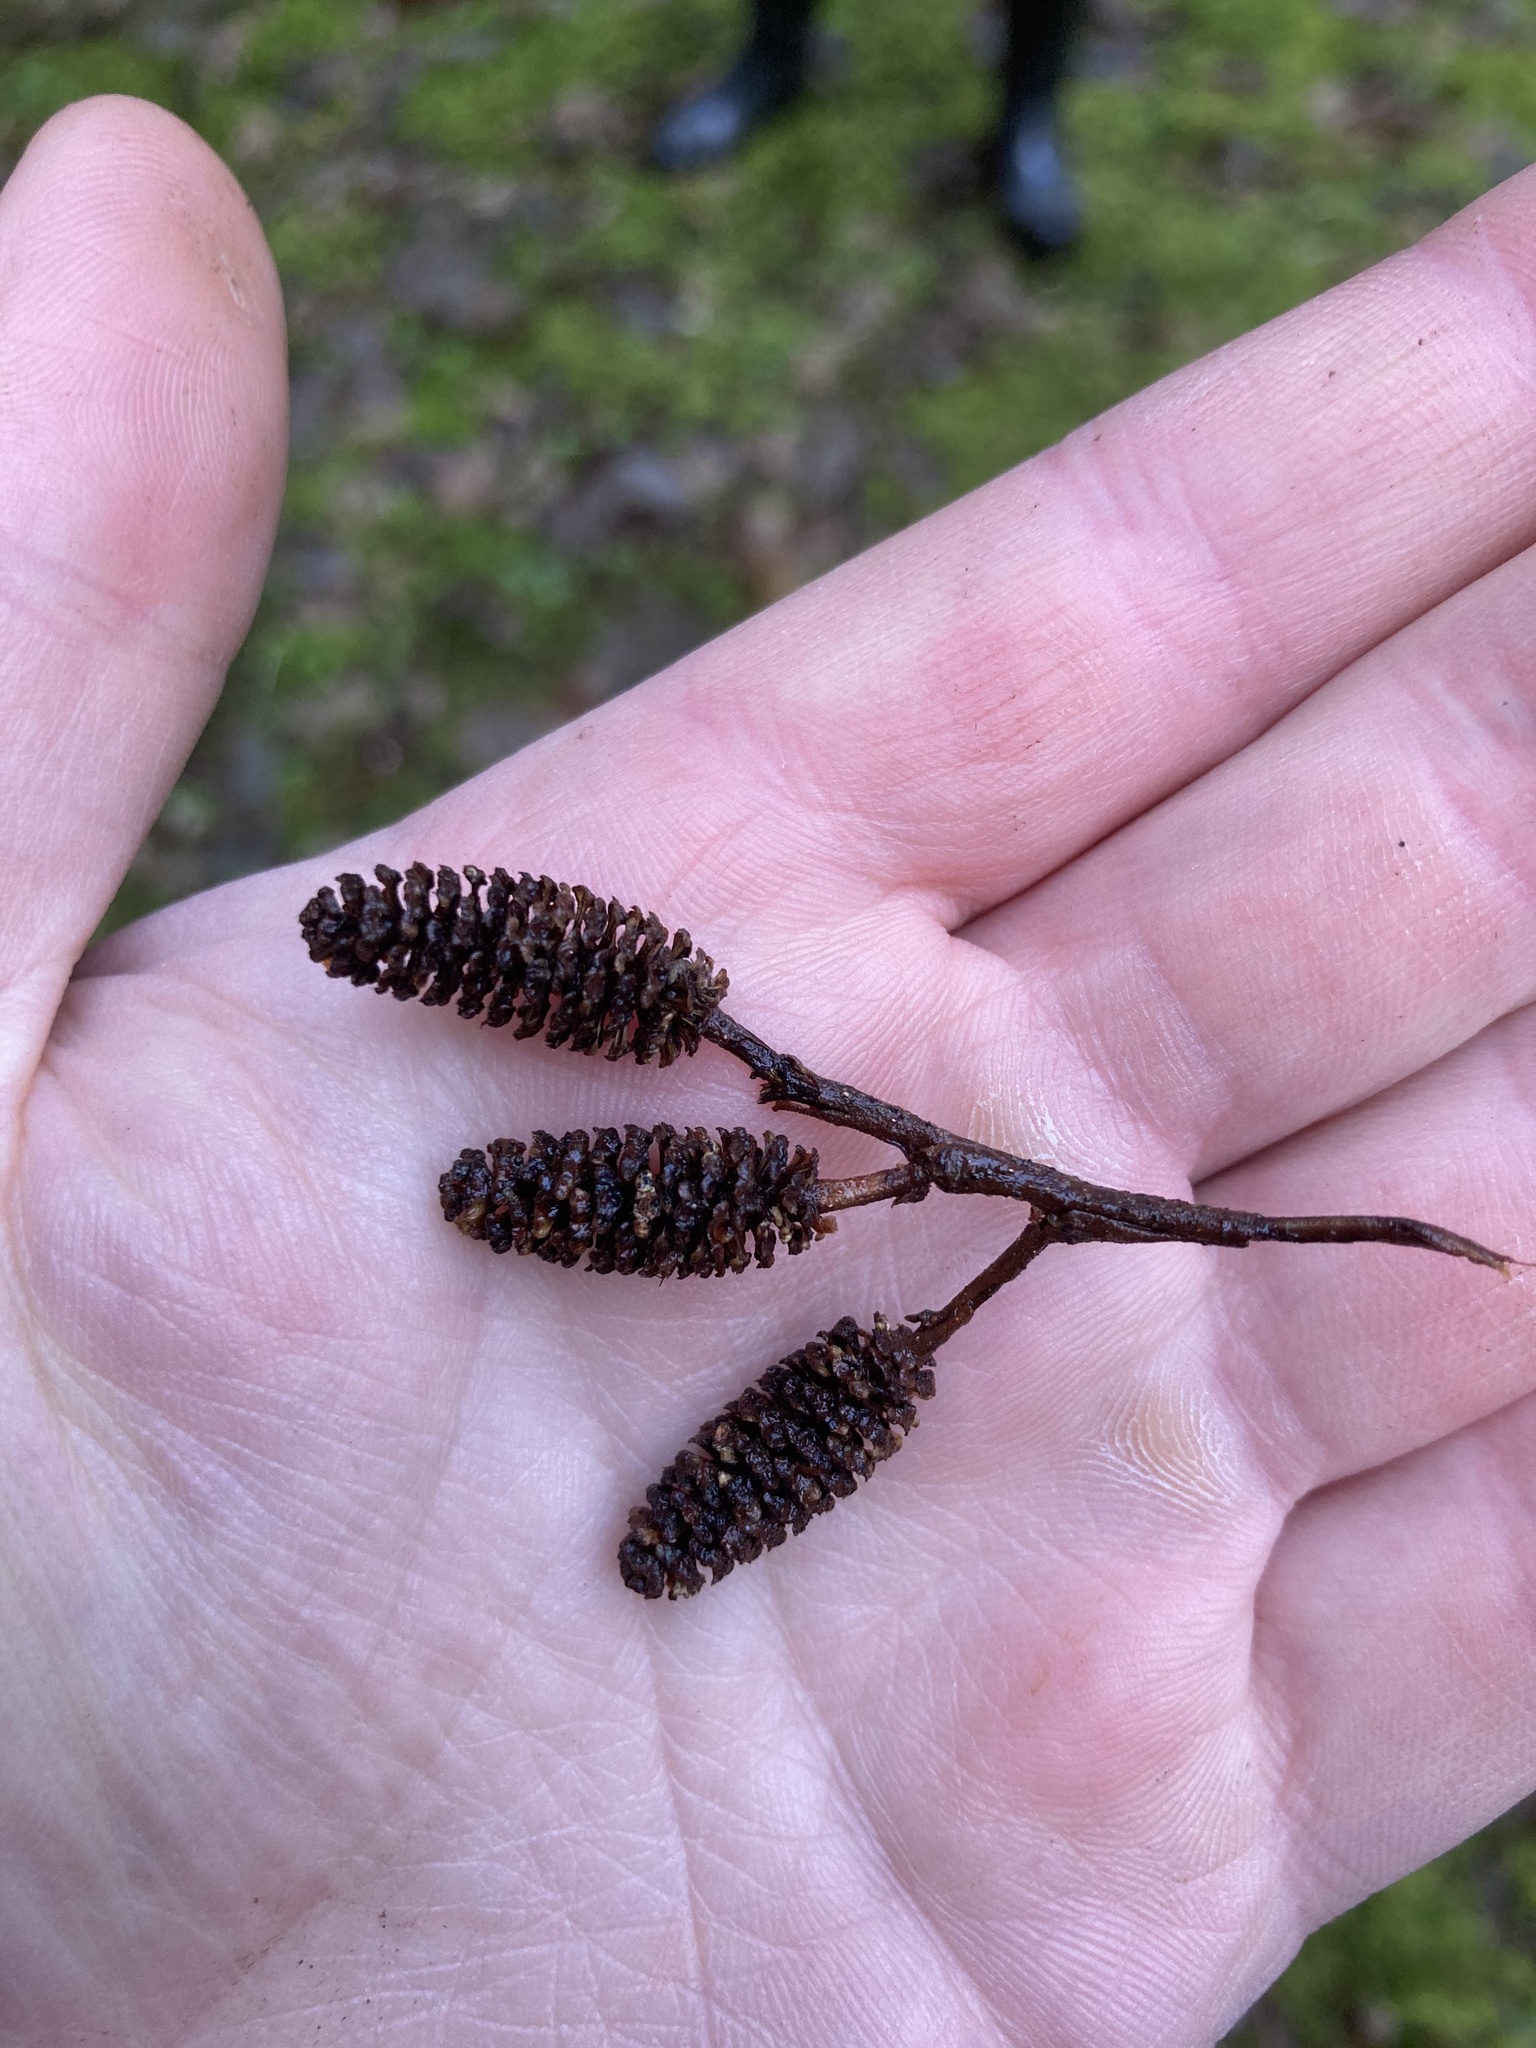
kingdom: Plantae
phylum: Tracheophyta
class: Magnoliopsida
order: Fagales
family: Betulaceae
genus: Alnus
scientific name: Alnus rubra
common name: Red alder
